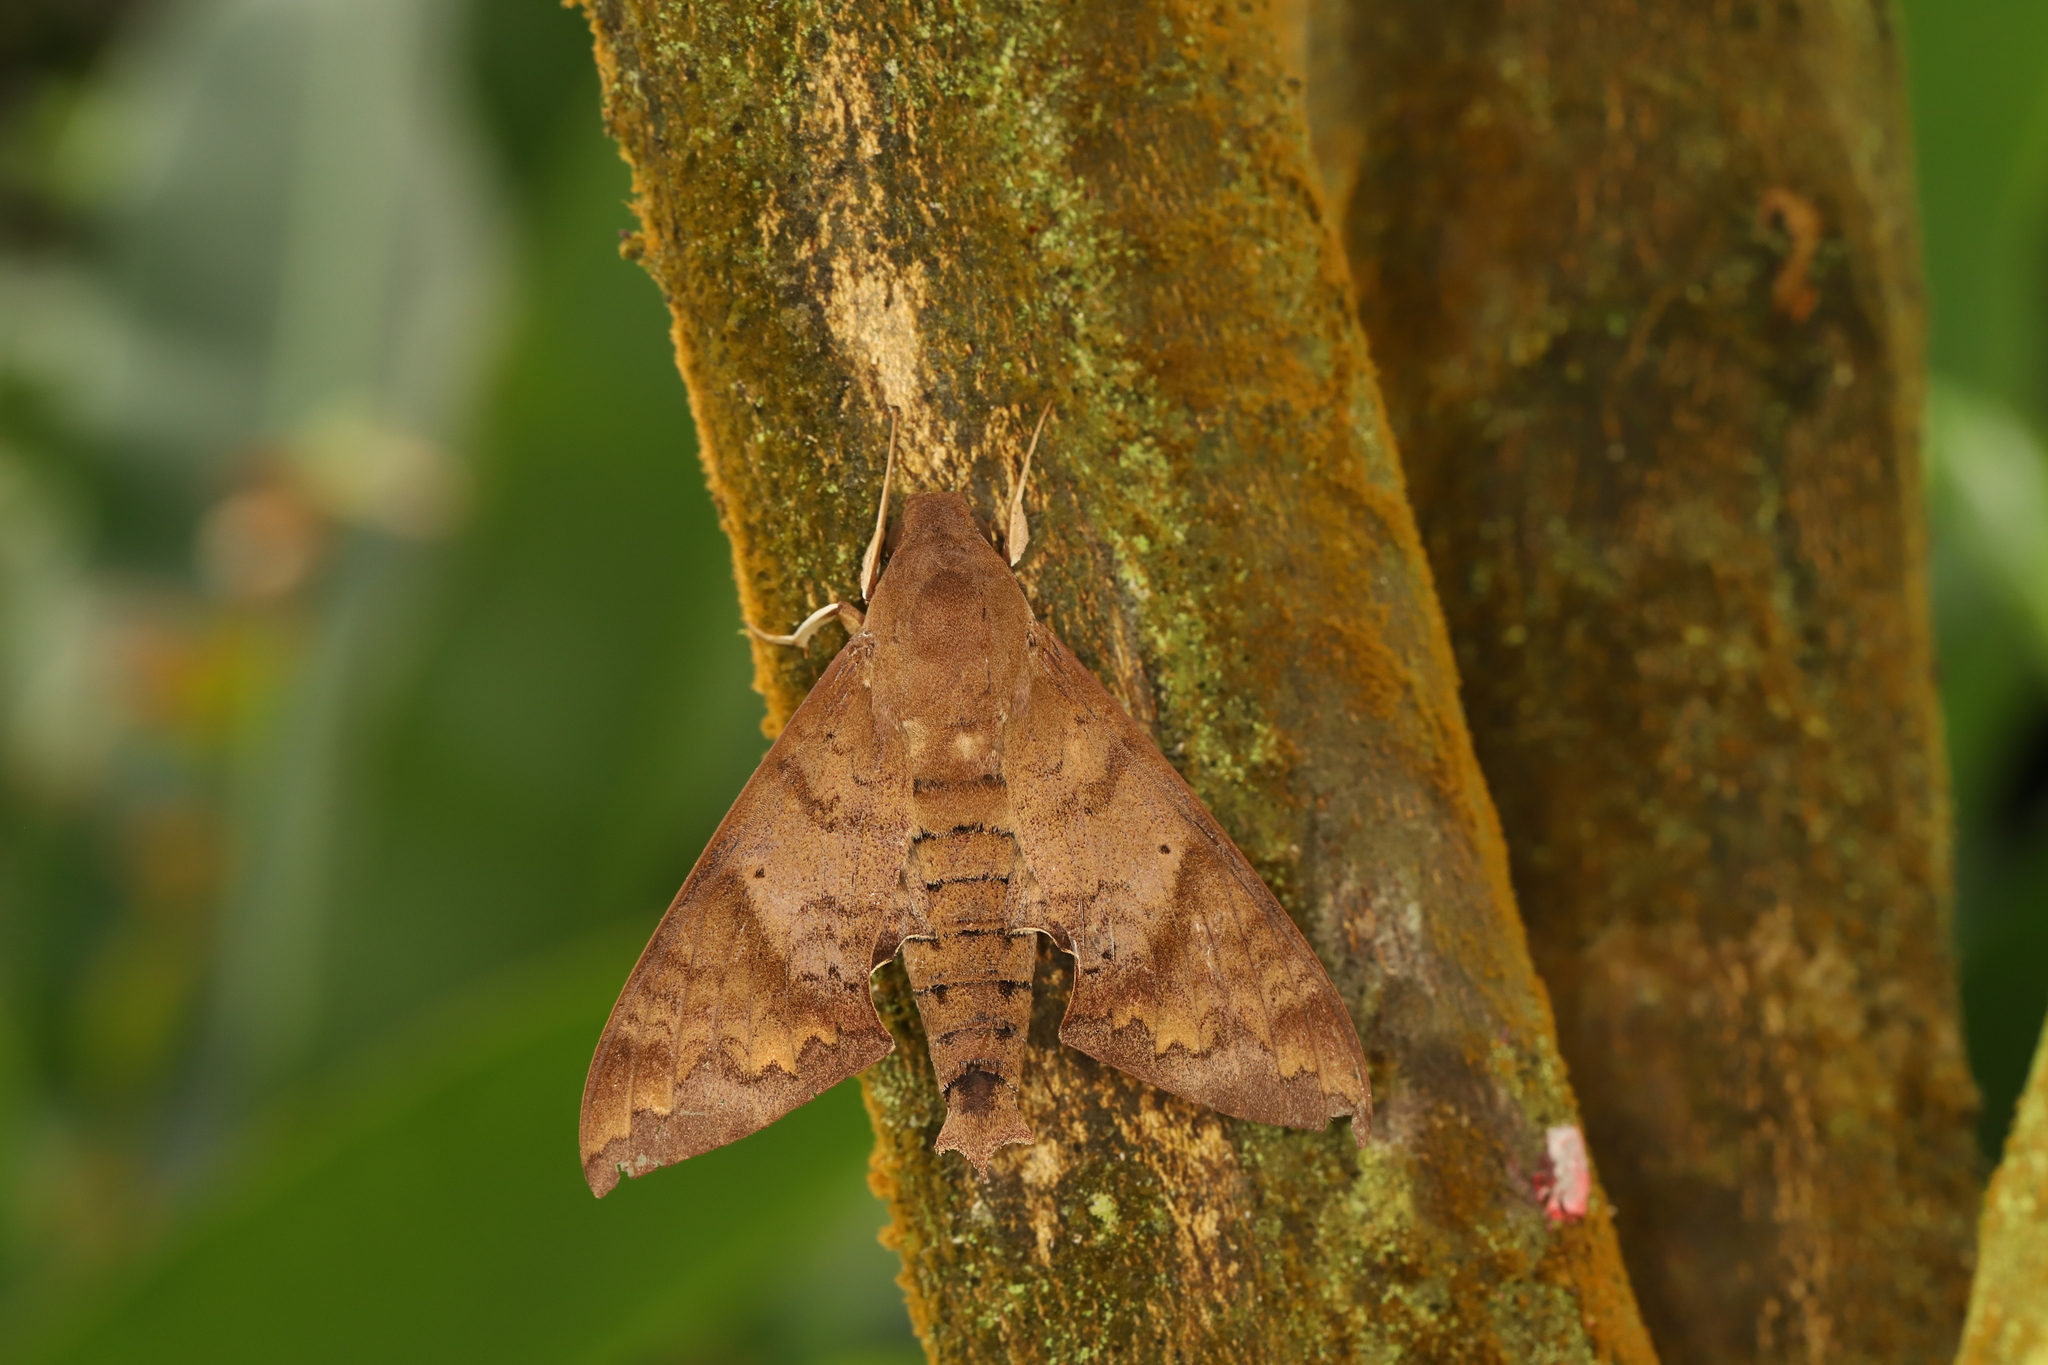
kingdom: Animalia
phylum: Arthropoda
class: Insecta
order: Lepidoptera
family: Sphingidae
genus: Pachylioides
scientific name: Pachylioides resumens
